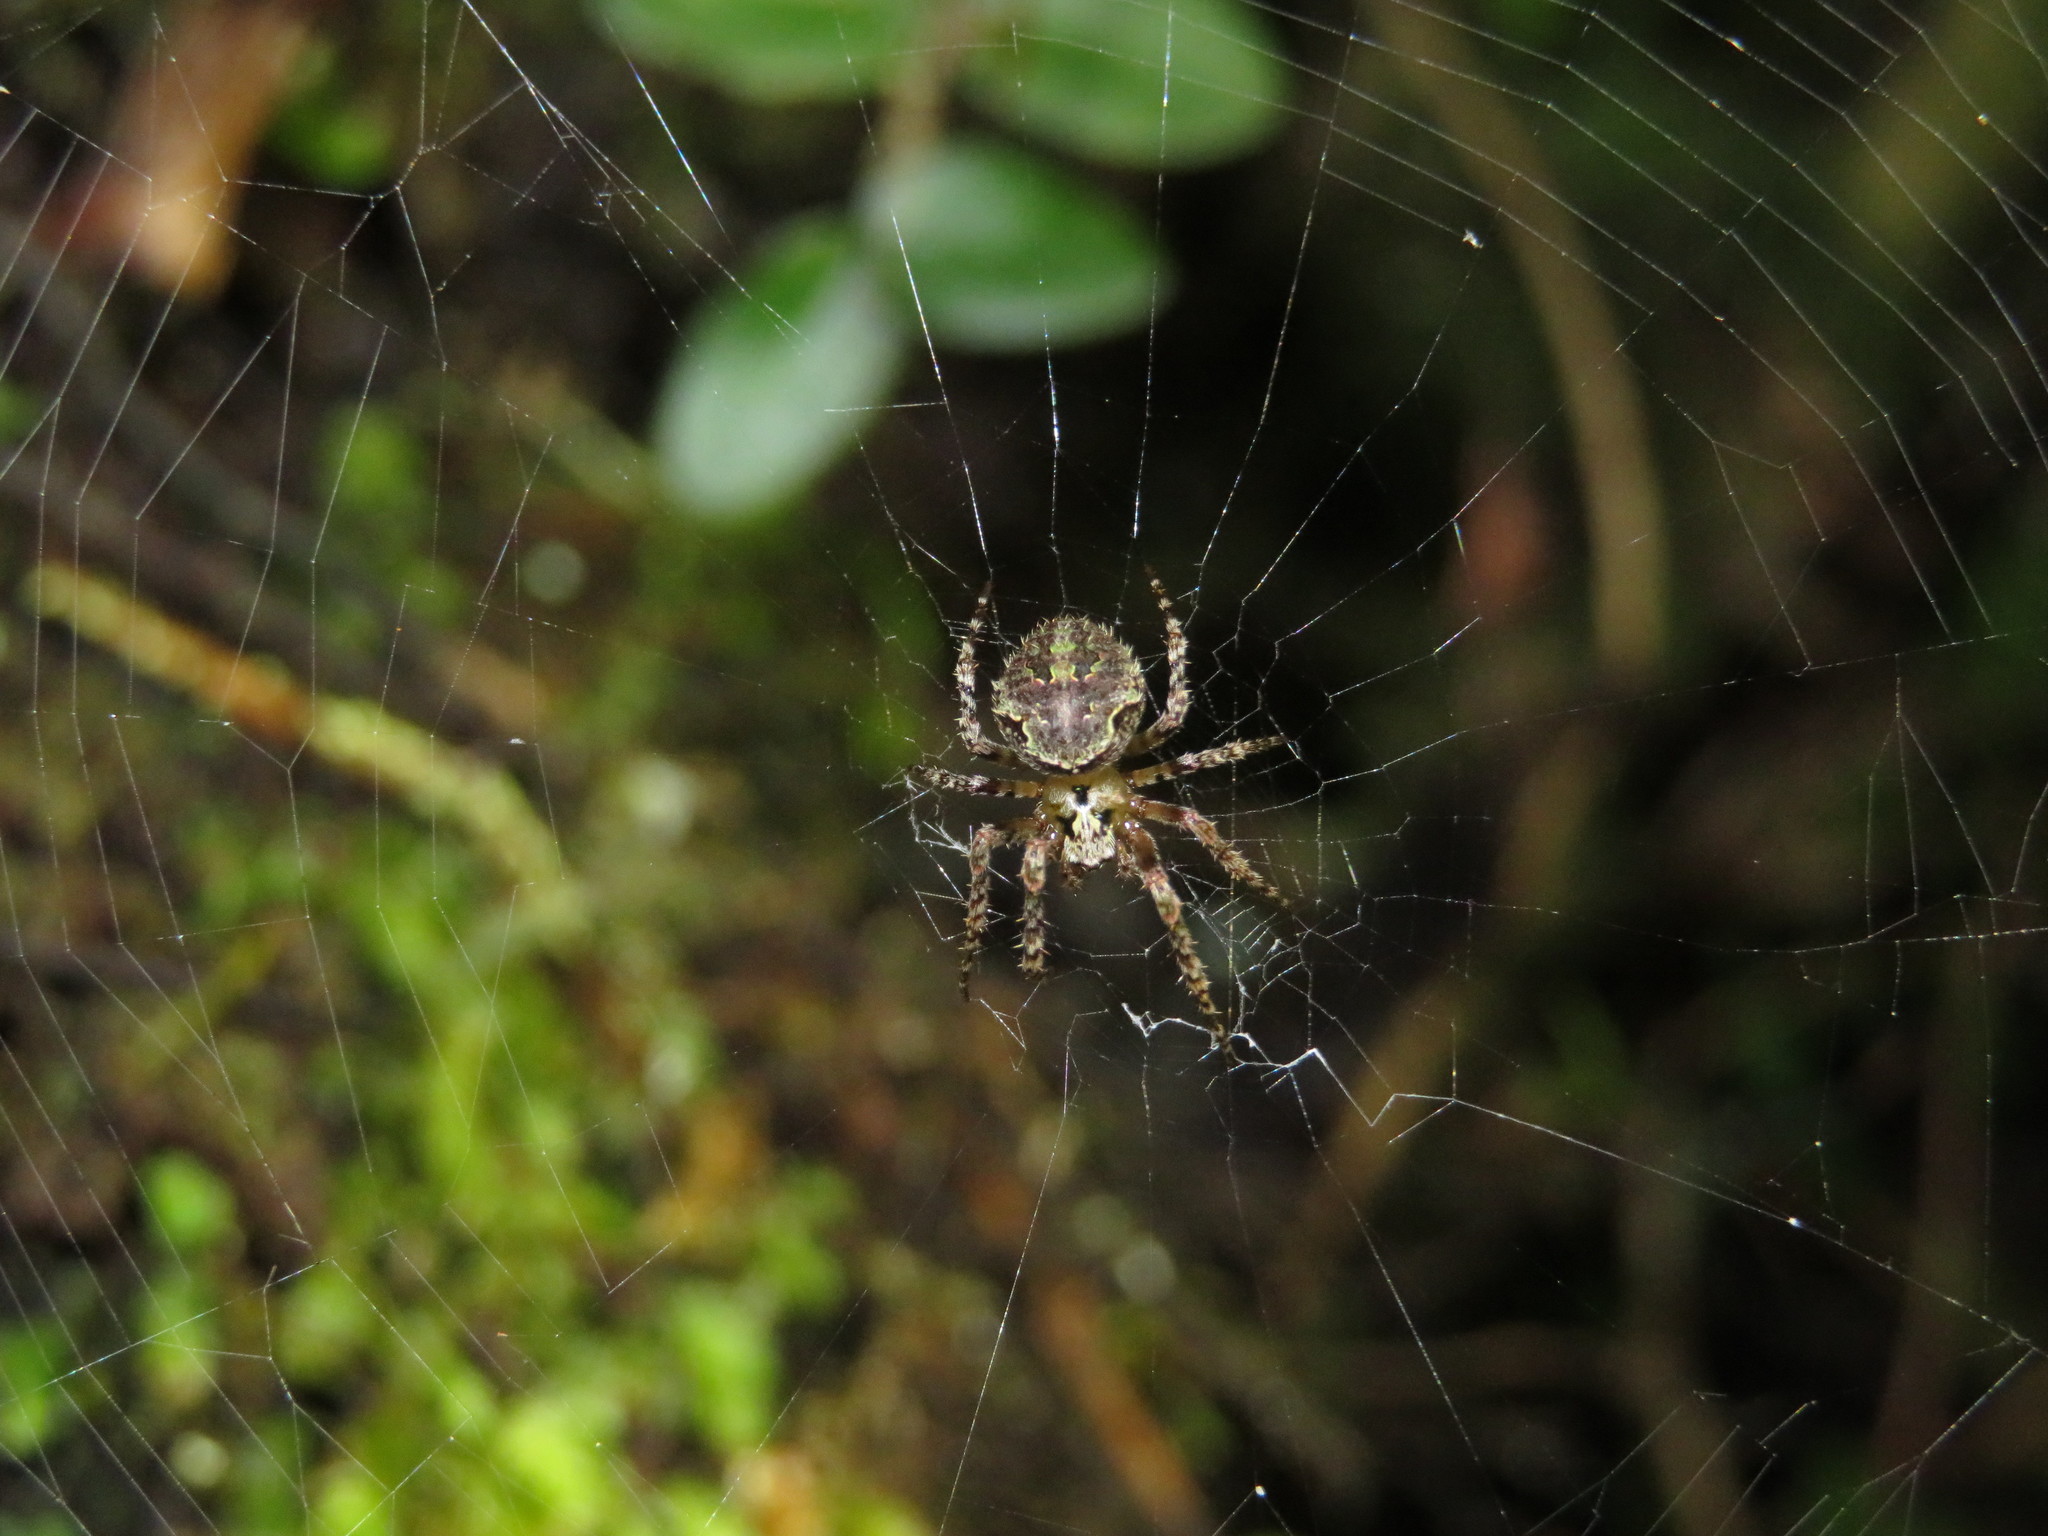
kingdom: Animalia
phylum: Arthropoda
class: Arachnida
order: Araneae
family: Araneidae
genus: Cryptaranea
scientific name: Cryptaranea atrihastula
